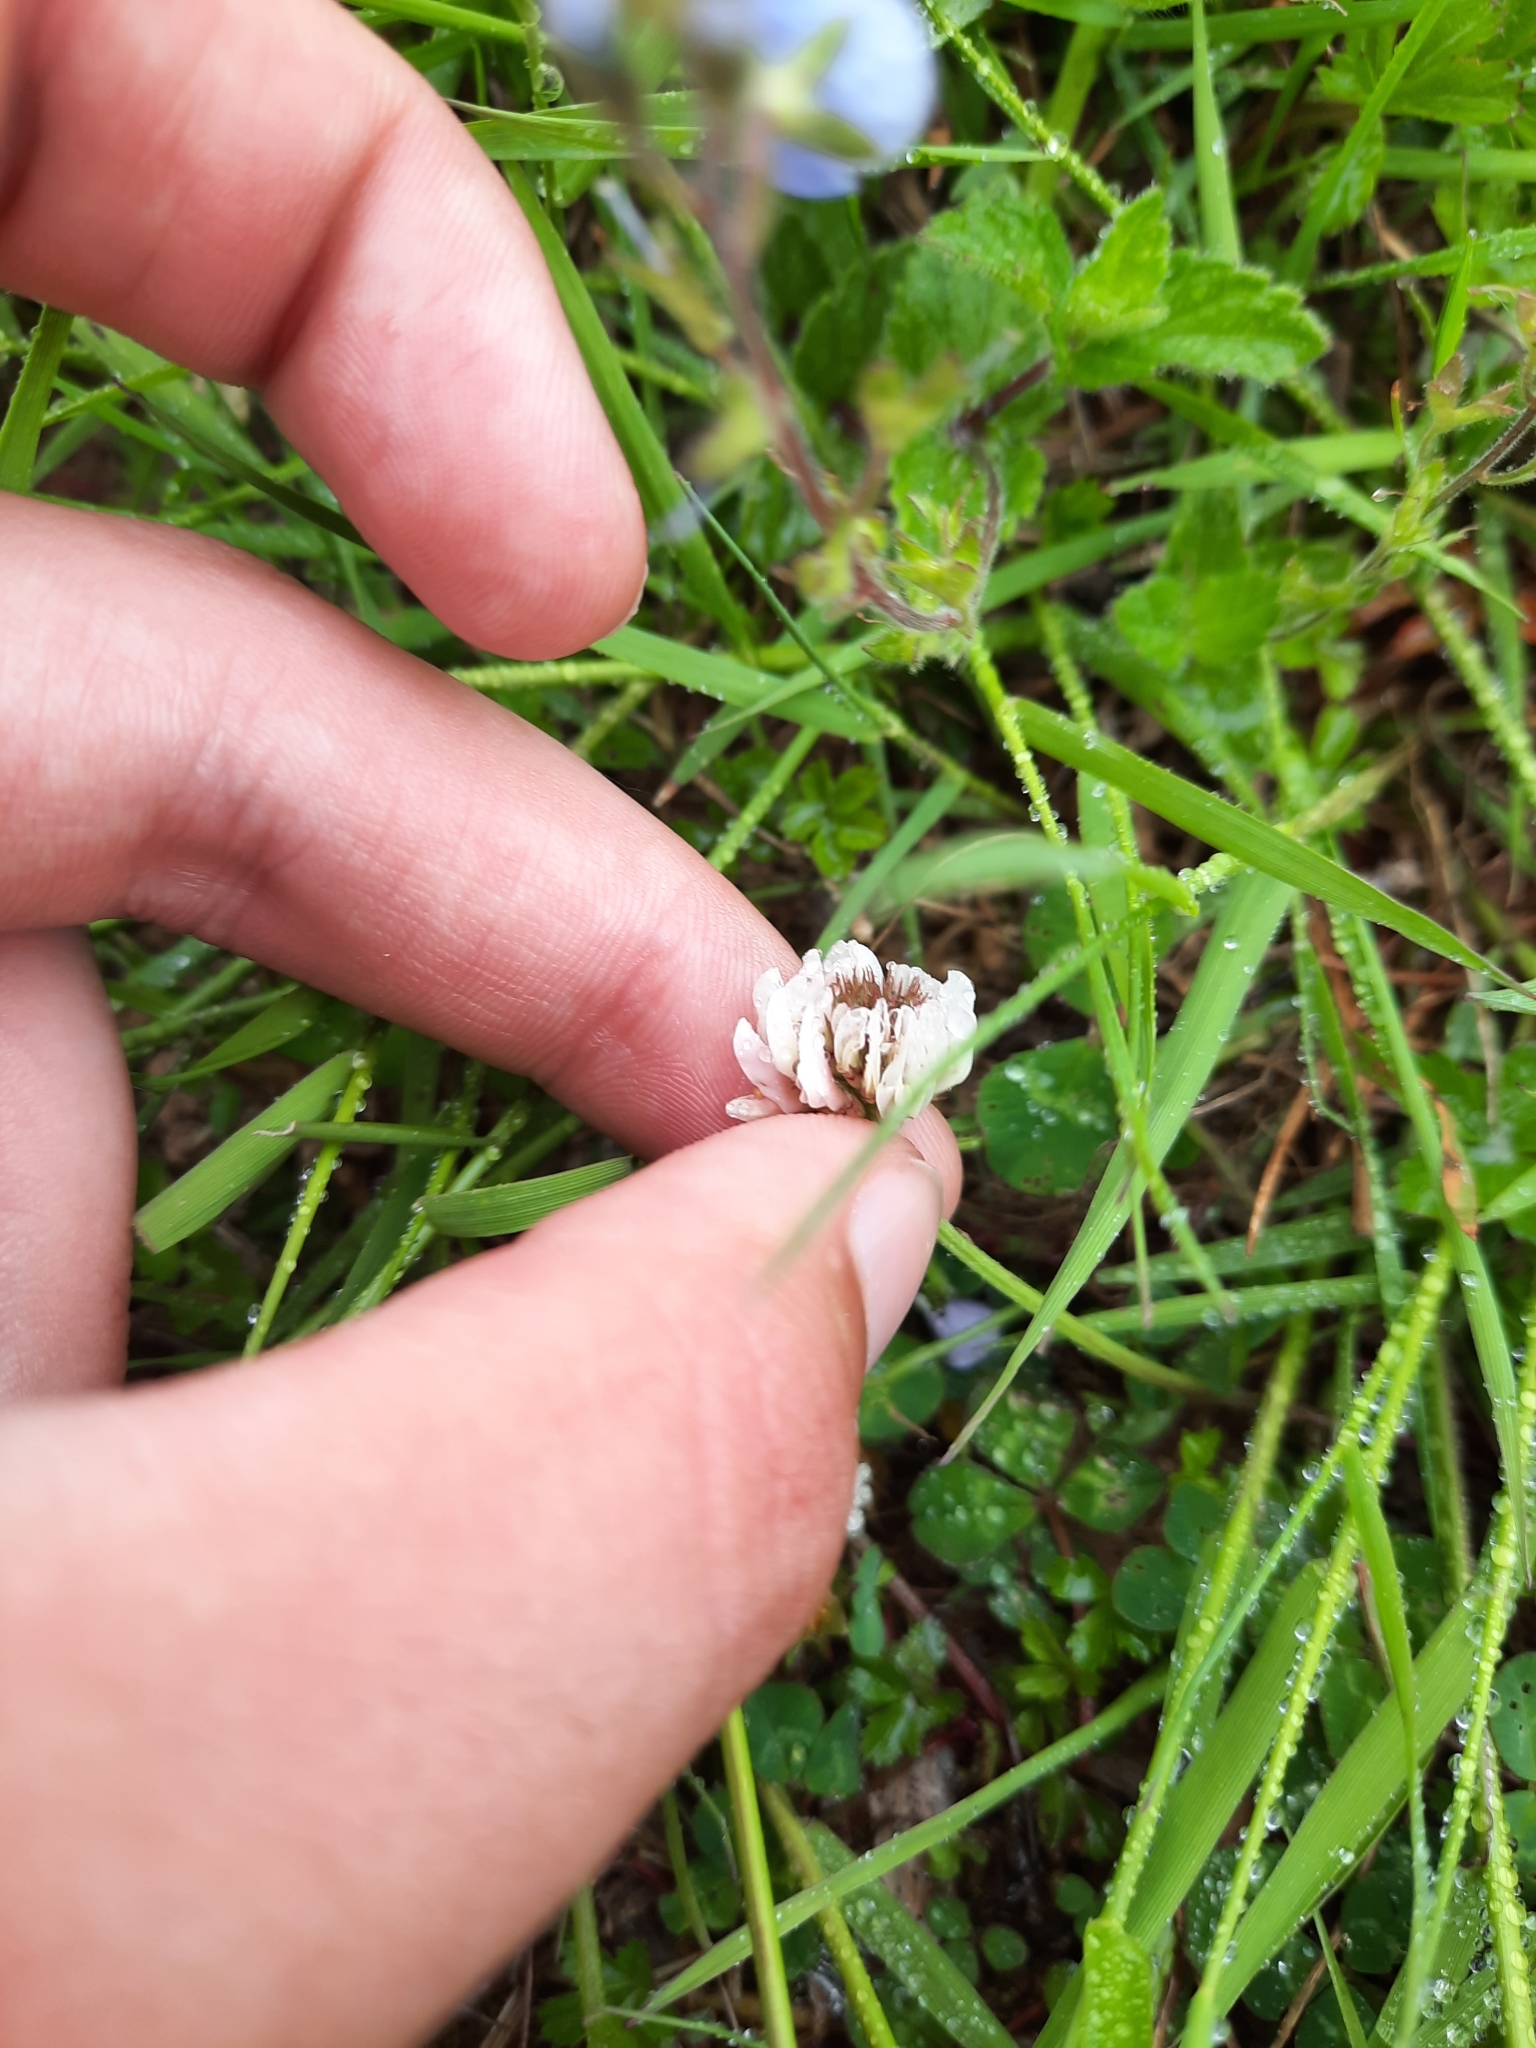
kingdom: Plantae
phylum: Tracheophyta
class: Magnoliopsida
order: Fabales
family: Fabaceae
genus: Trifolium
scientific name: Trifolium repens
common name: White clover
